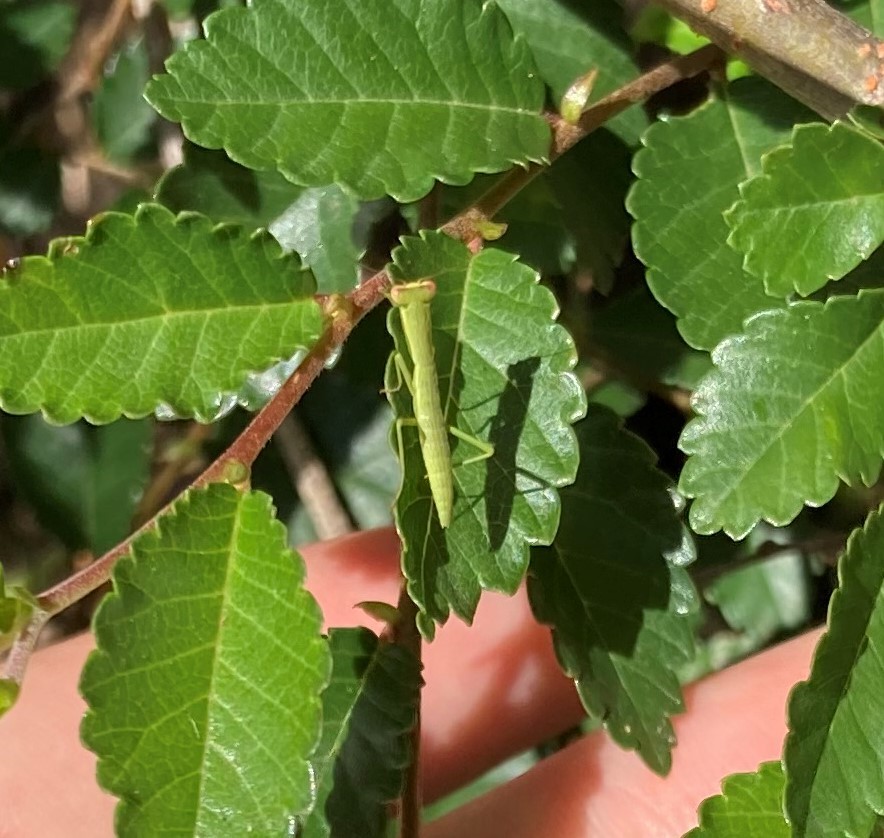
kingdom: Animalia
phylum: Arthropoda
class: Insecta
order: Mantodea
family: Mantidae
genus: Orthodera
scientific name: Orthodera ministralis
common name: Mantis
